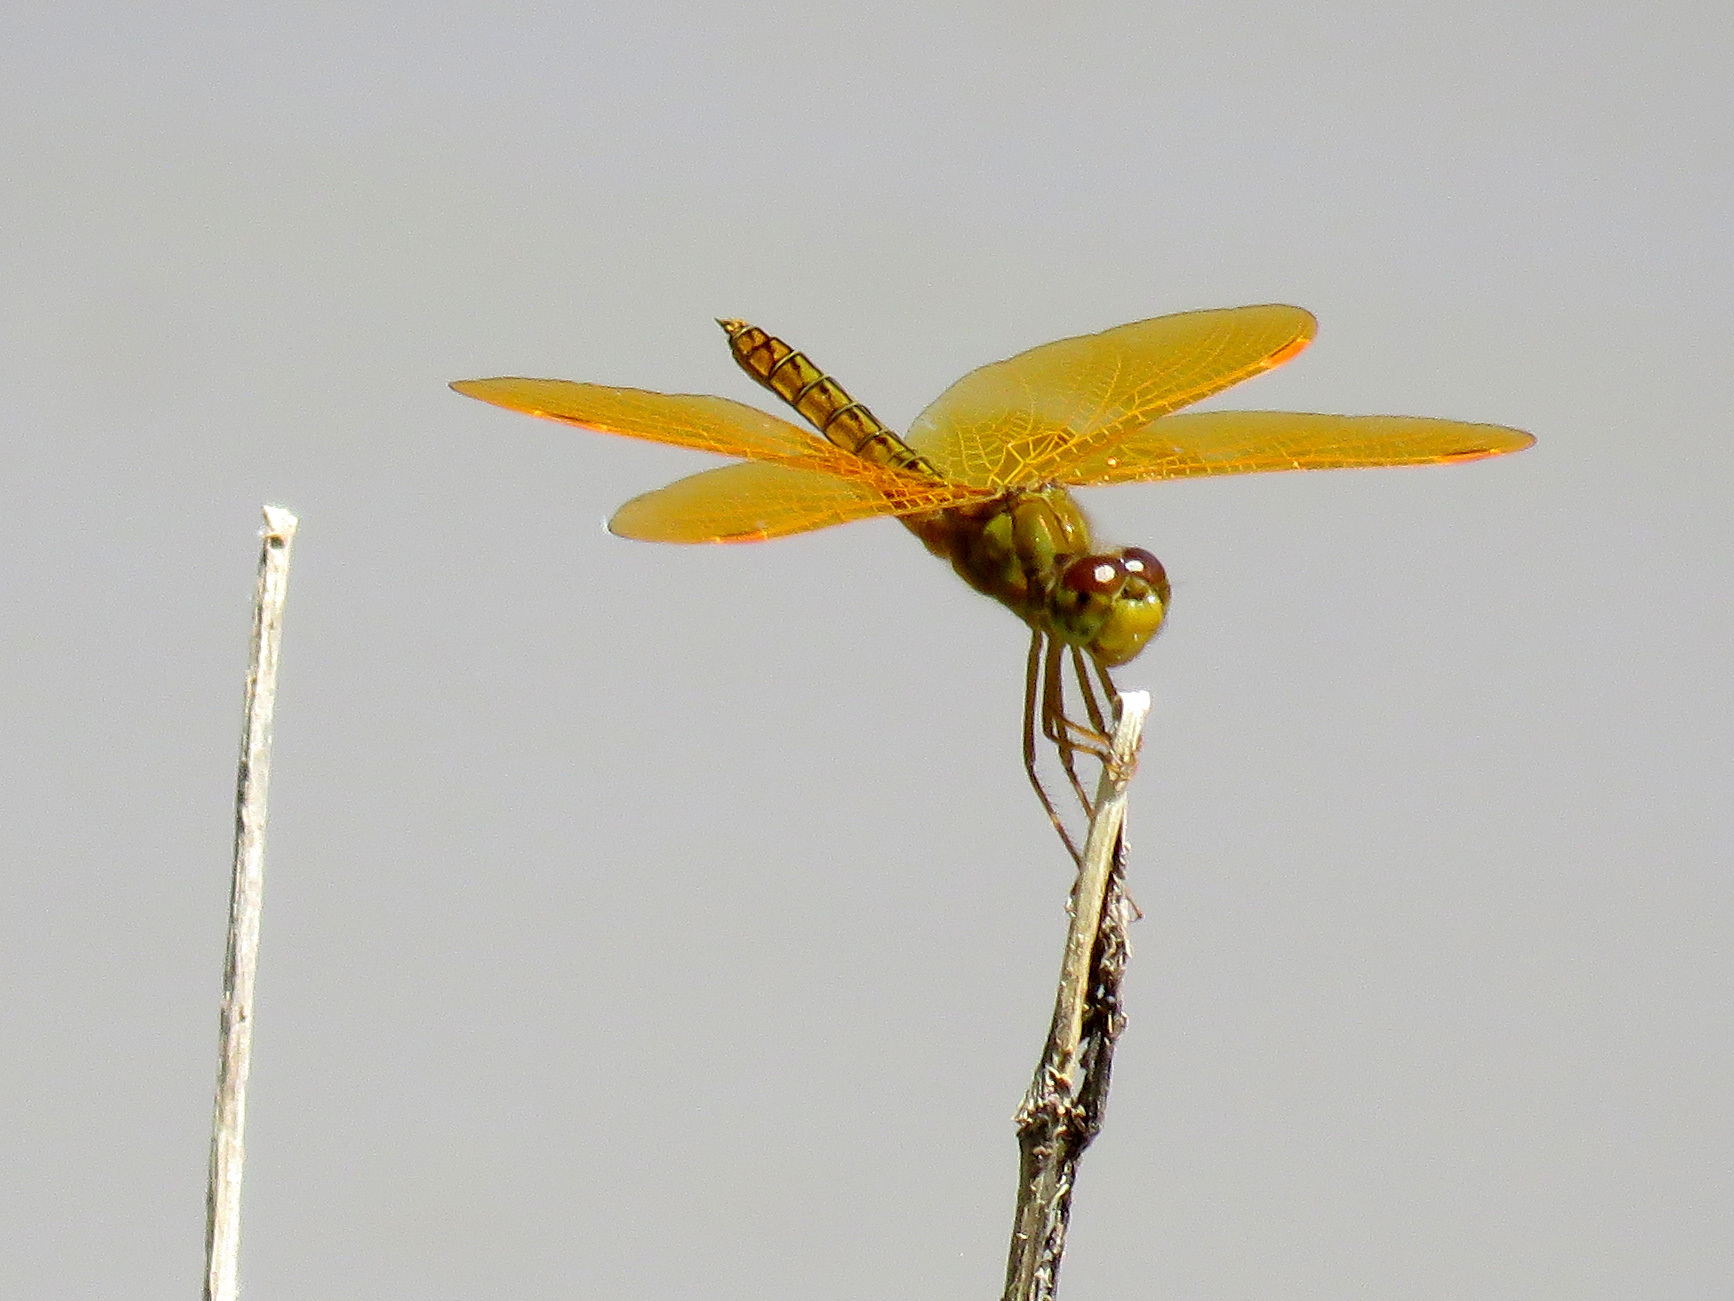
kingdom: Animalia
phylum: Arthropoda
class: Insecta
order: Odonata
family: Libellulidae
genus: Perithemis
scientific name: Perithemis intensa
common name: Mexican amberwing
